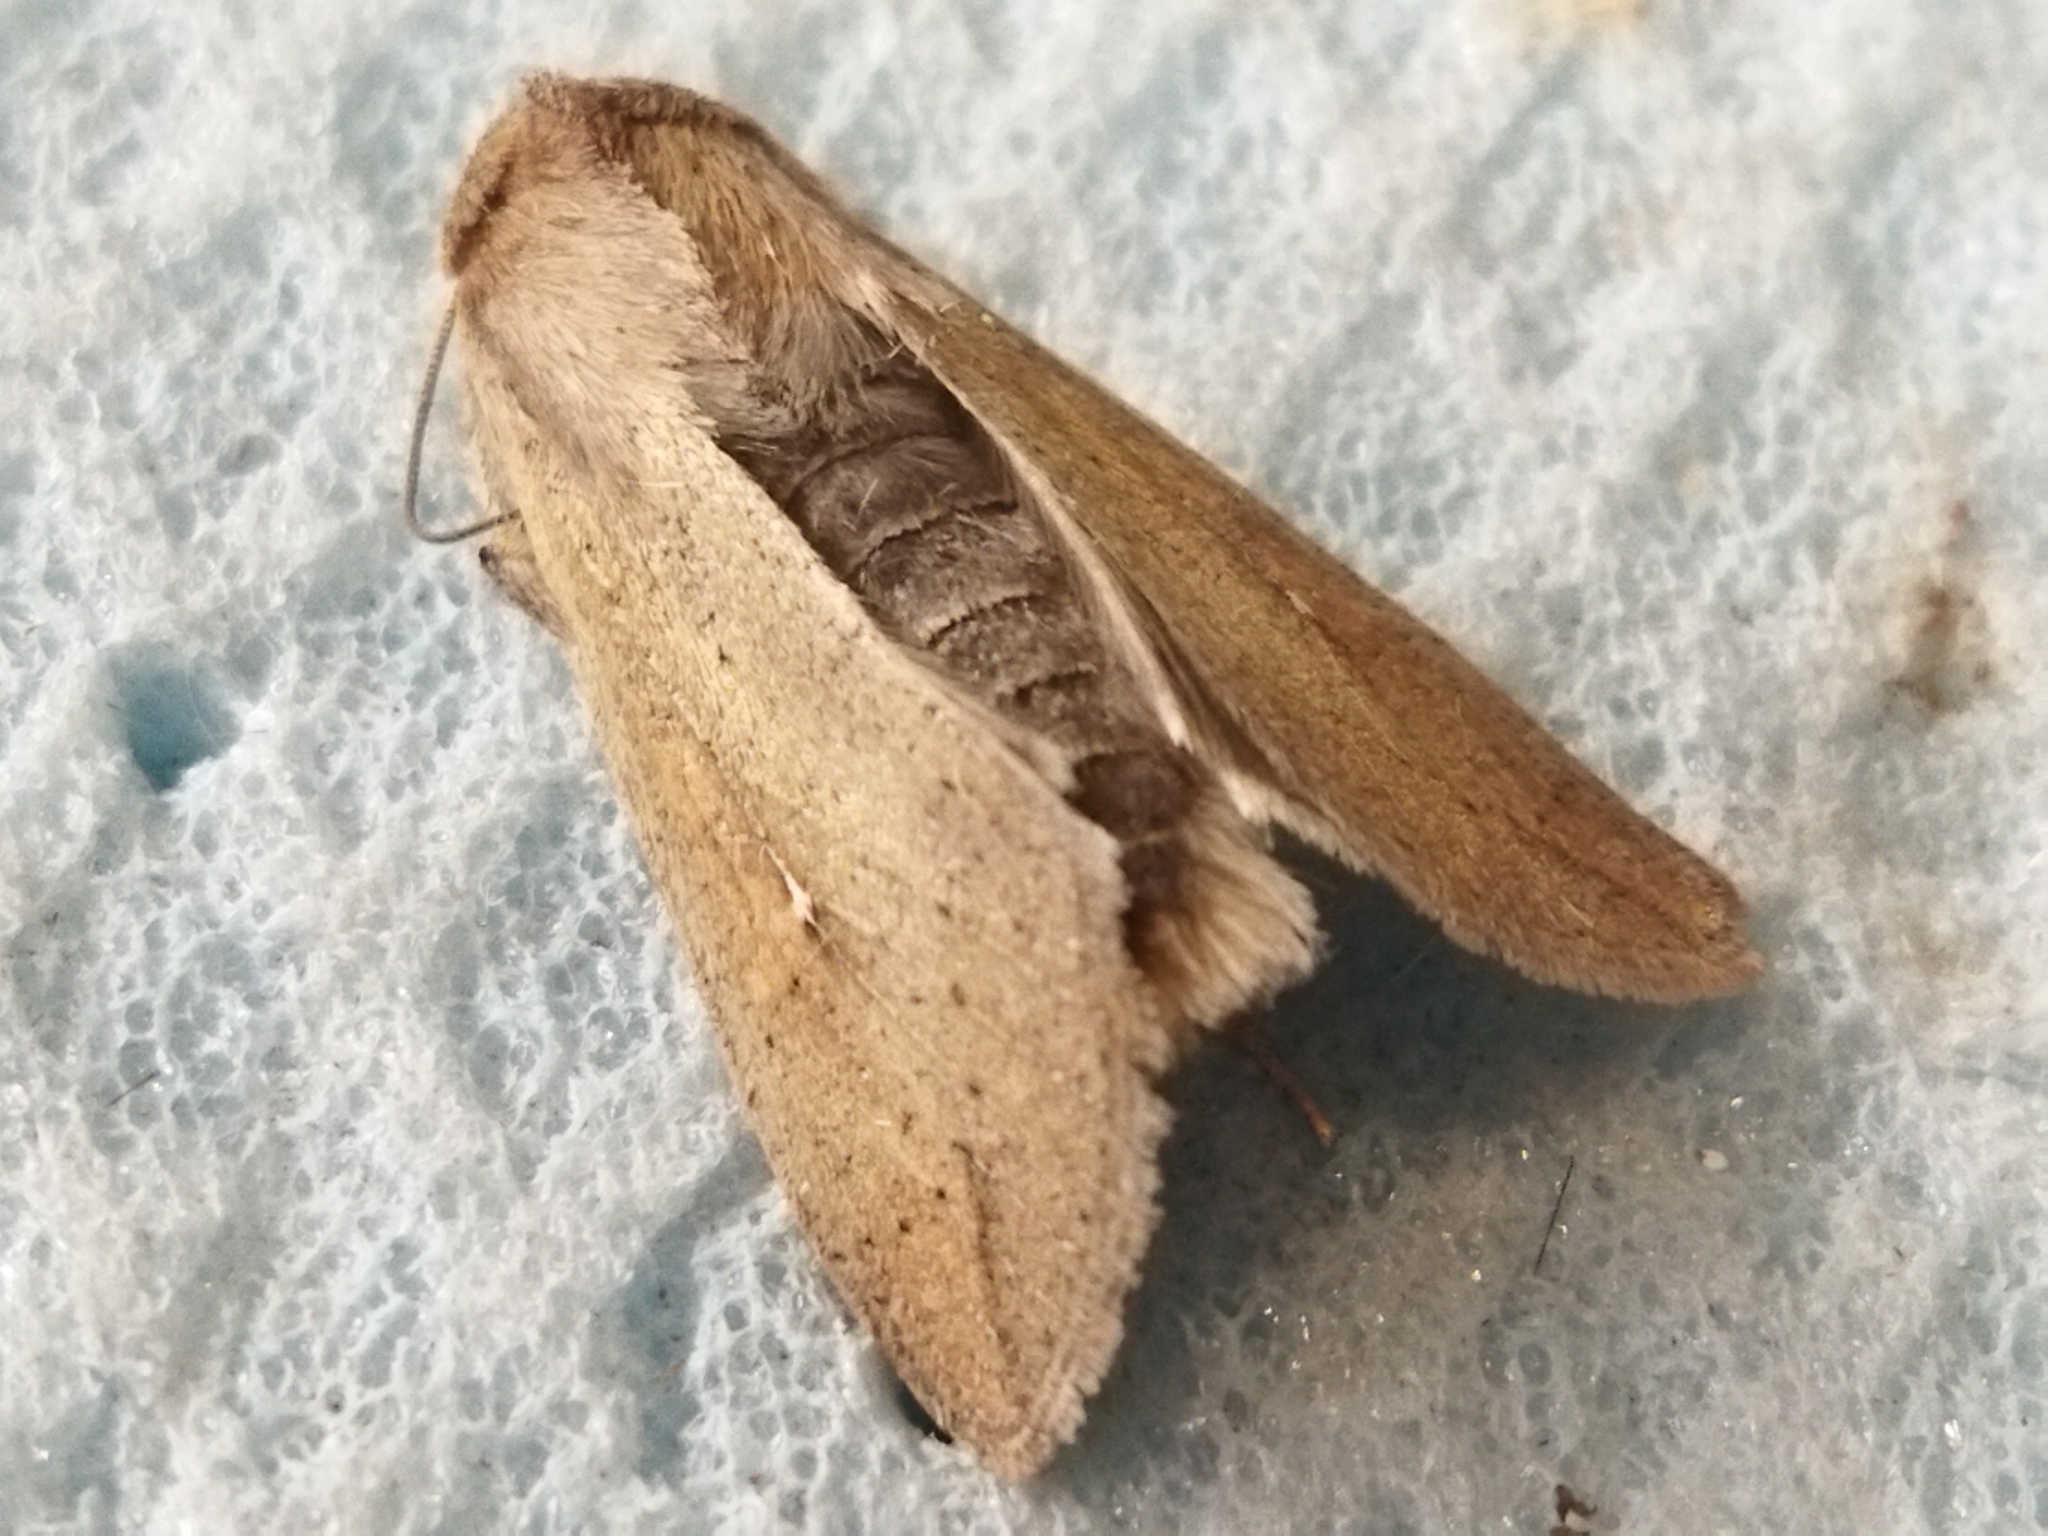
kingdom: Animalia
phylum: Arthropoda
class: Insecta
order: Lepidoptera
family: Noctuidae
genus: Mythimna
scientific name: Mythimna unipuncta
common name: White-speck
